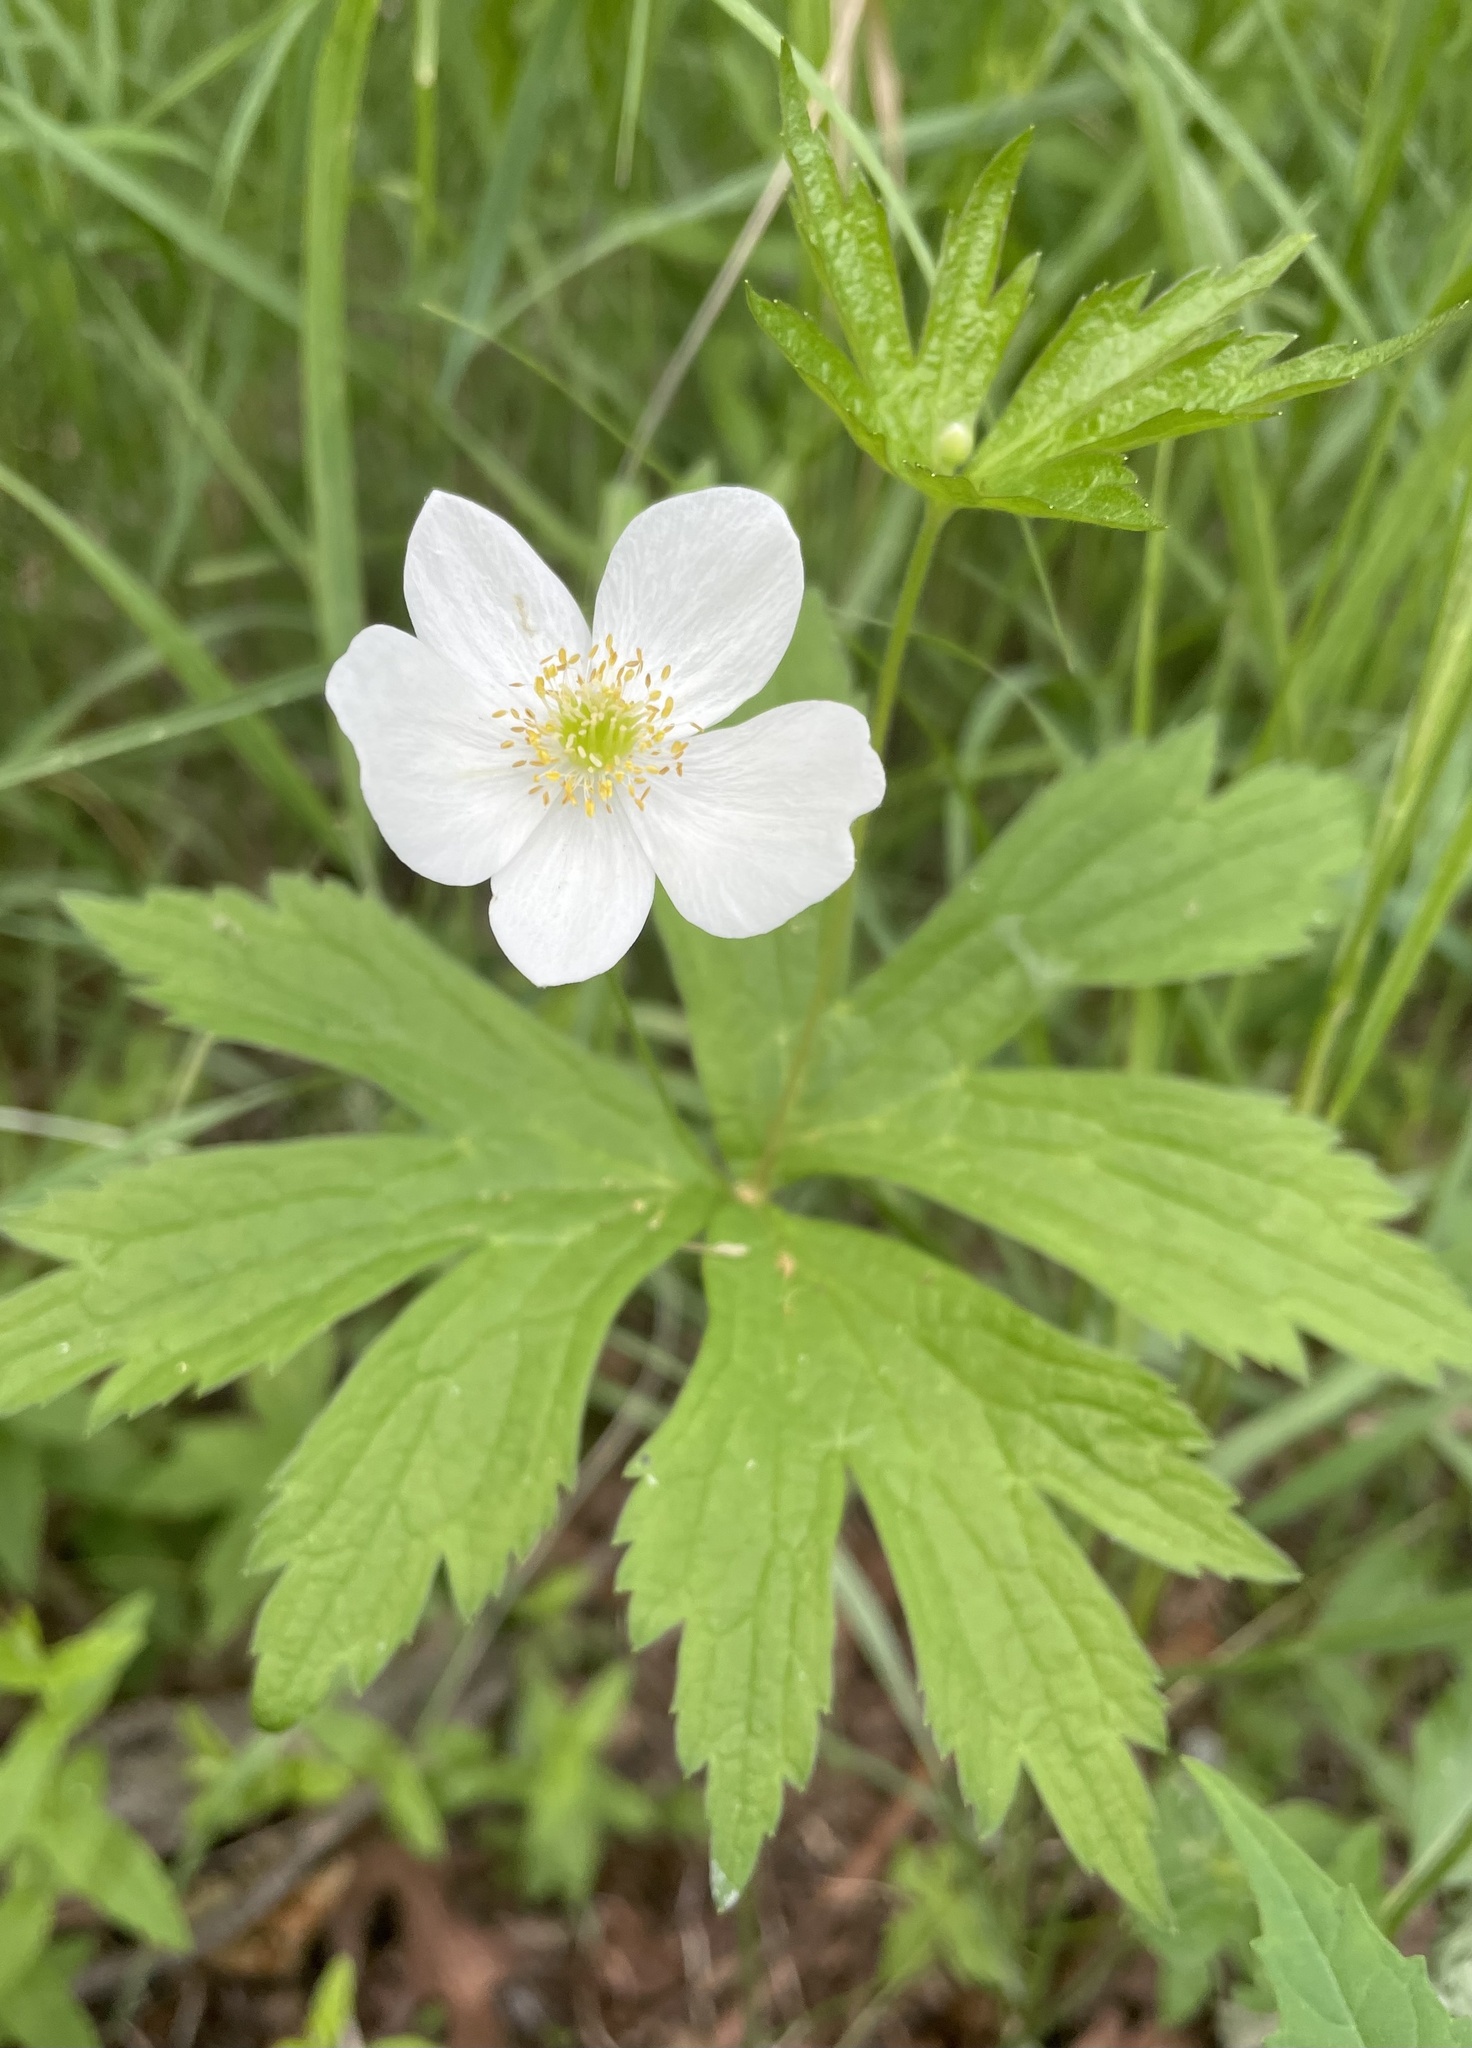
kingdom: Plantae
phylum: Tracheophyta
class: Magnoliopsida
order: Ranunculales
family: Ranunculaceae
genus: Anemonastrum
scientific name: Anemonastrum canadense
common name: Canada anemone
